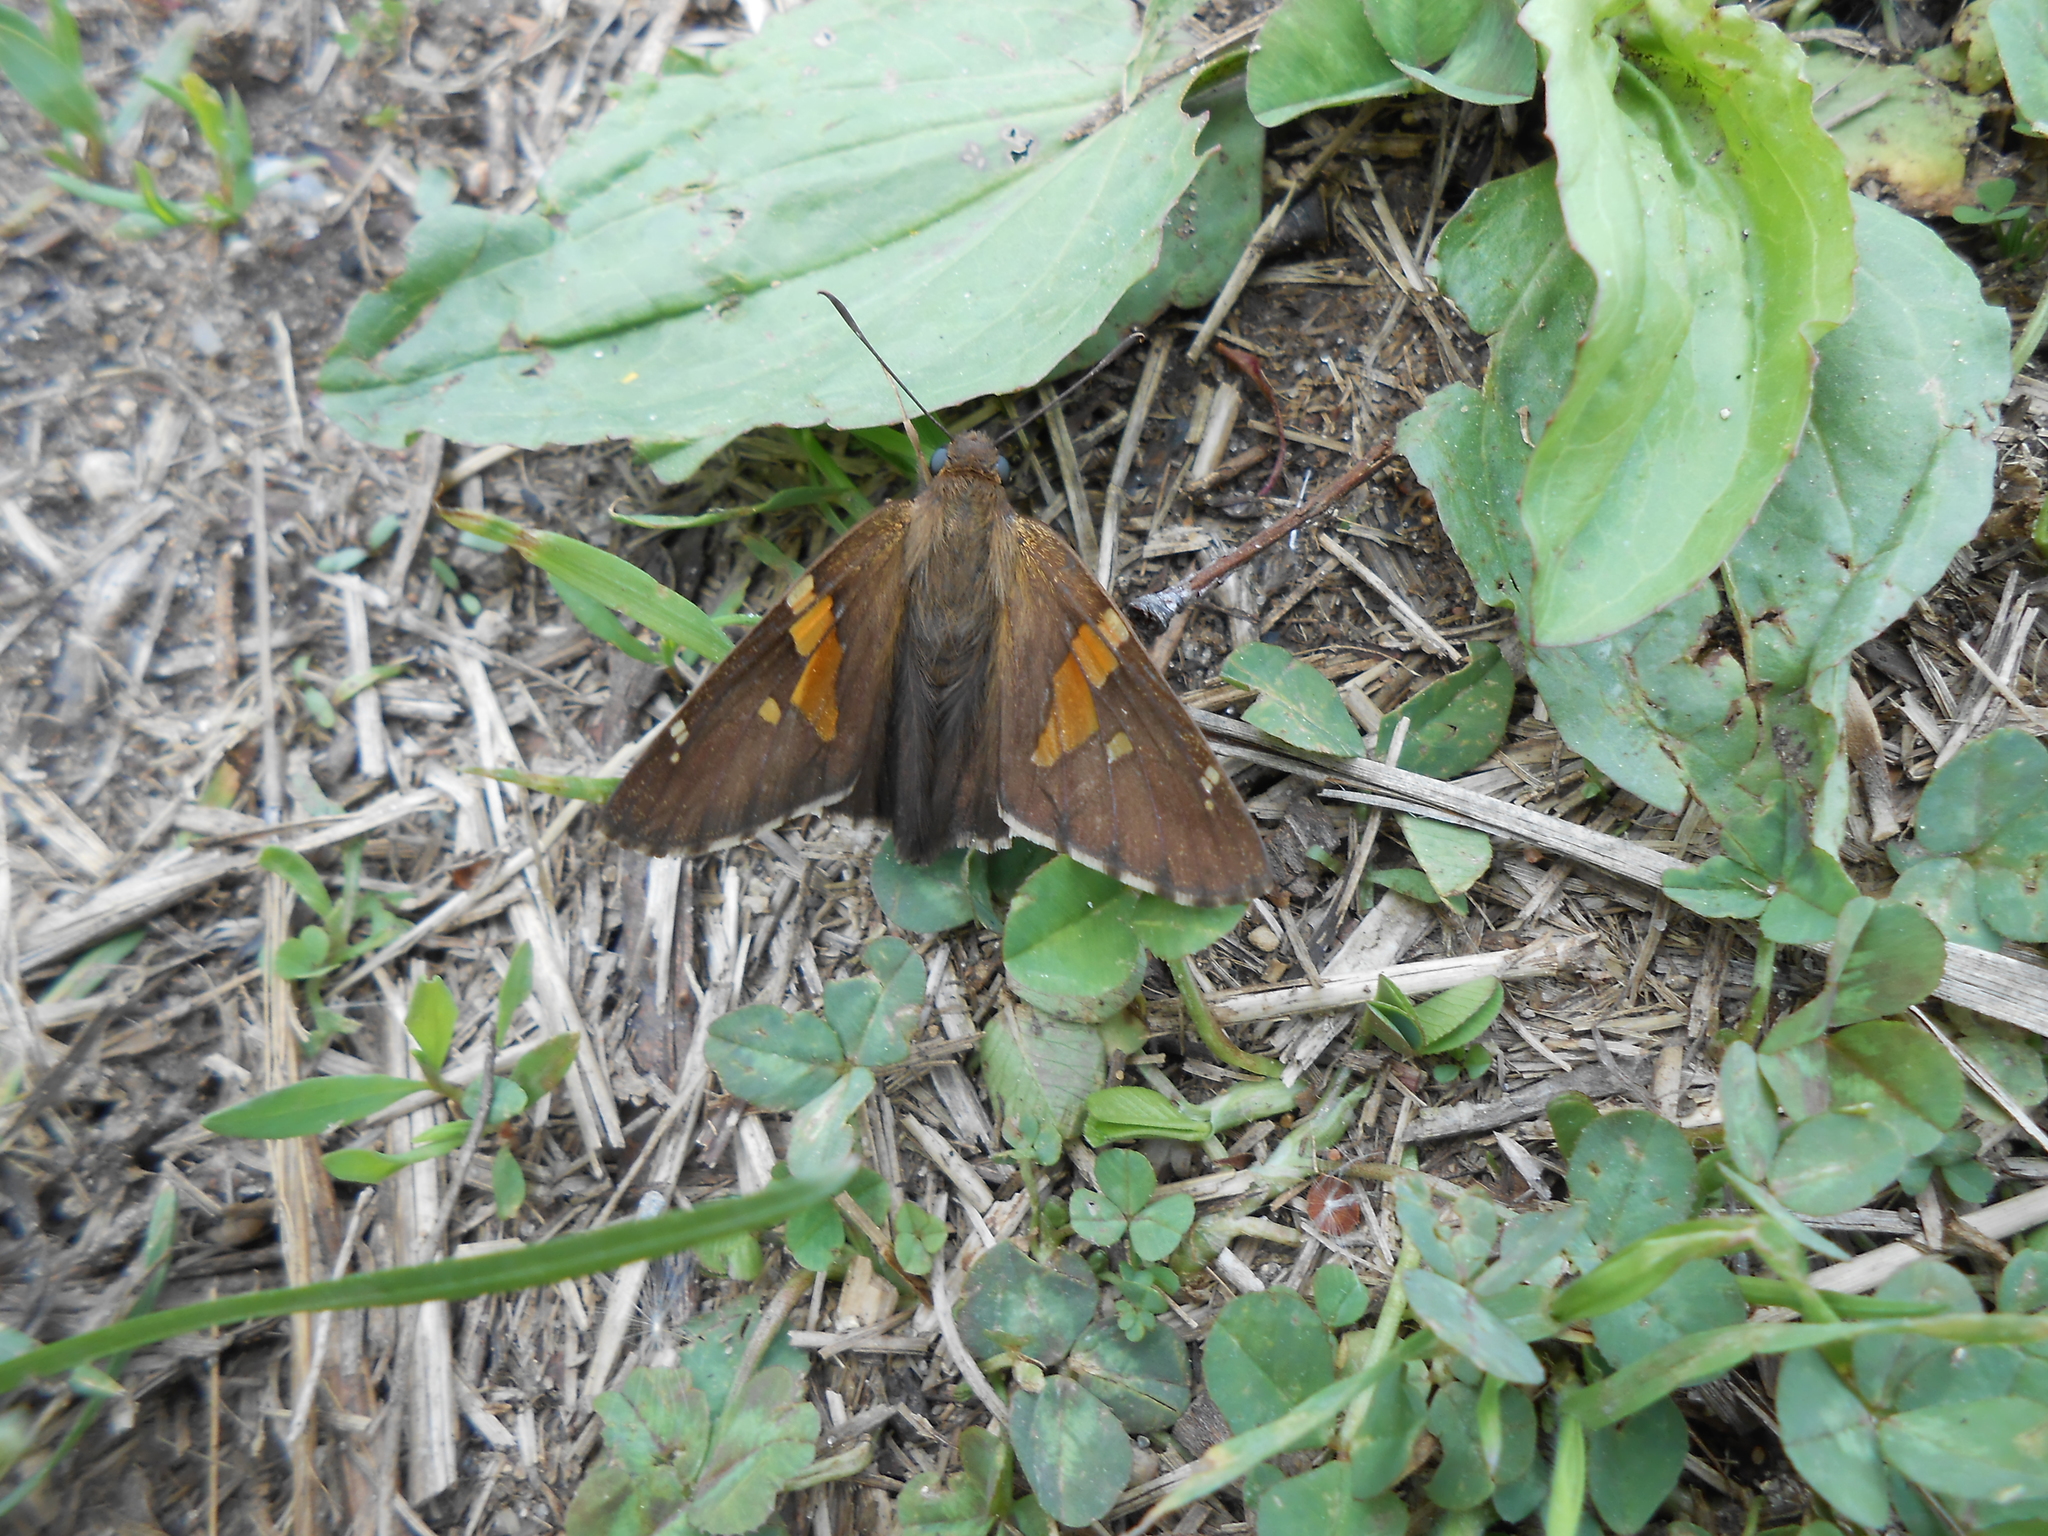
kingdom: Animalia
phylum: Arthropoda
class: Insecta
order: Lepidoptera
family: Hesperiidae
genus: Epargyreus
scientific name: Epargyreus clarus
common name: Silver-spotted skipper
